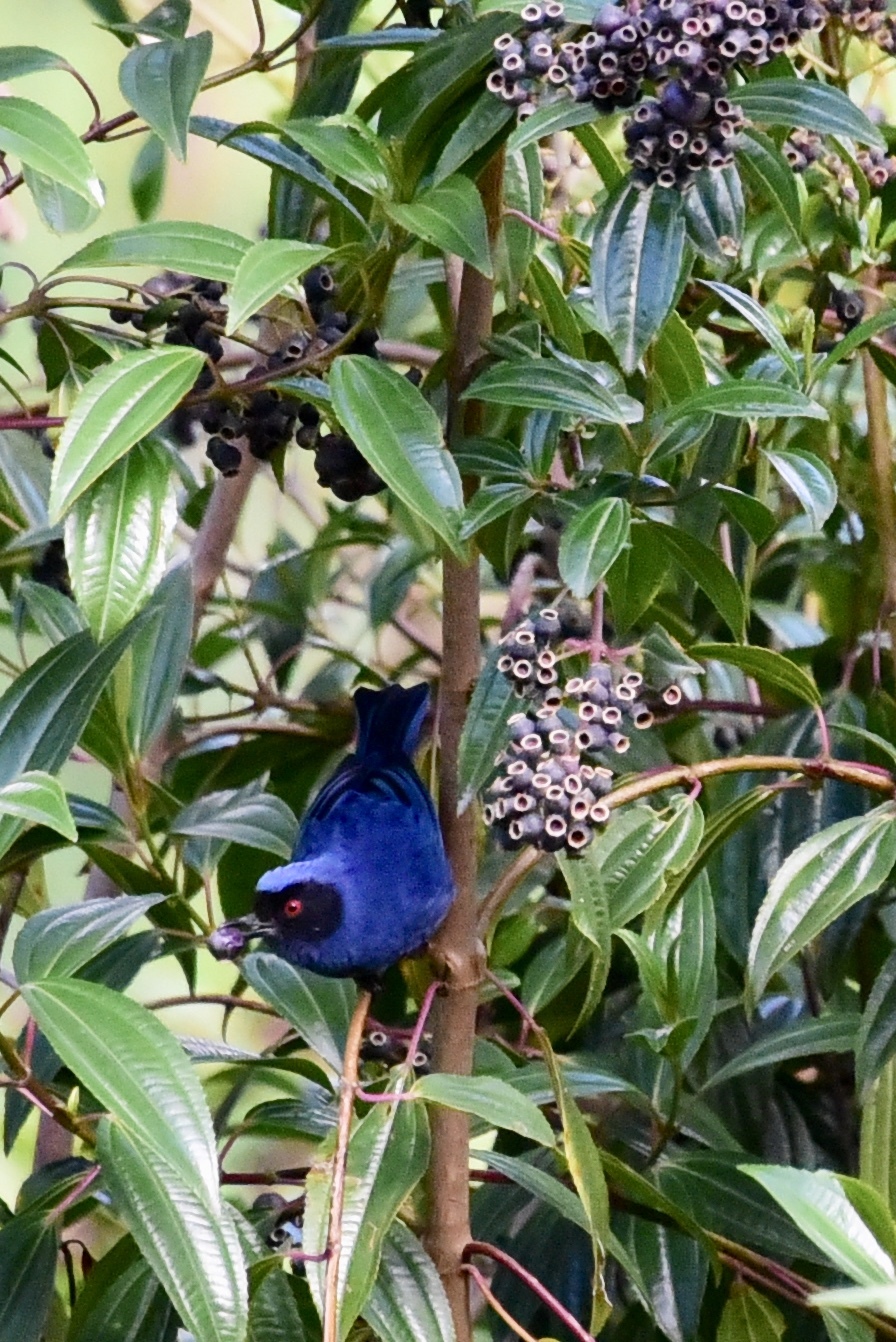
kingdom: Animalia
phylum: Chordata
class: Aves
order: Passeriformes
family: Thraupidae
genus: Diglossa
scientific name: Diglossa cyanea
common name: Masked flowerpiercer
